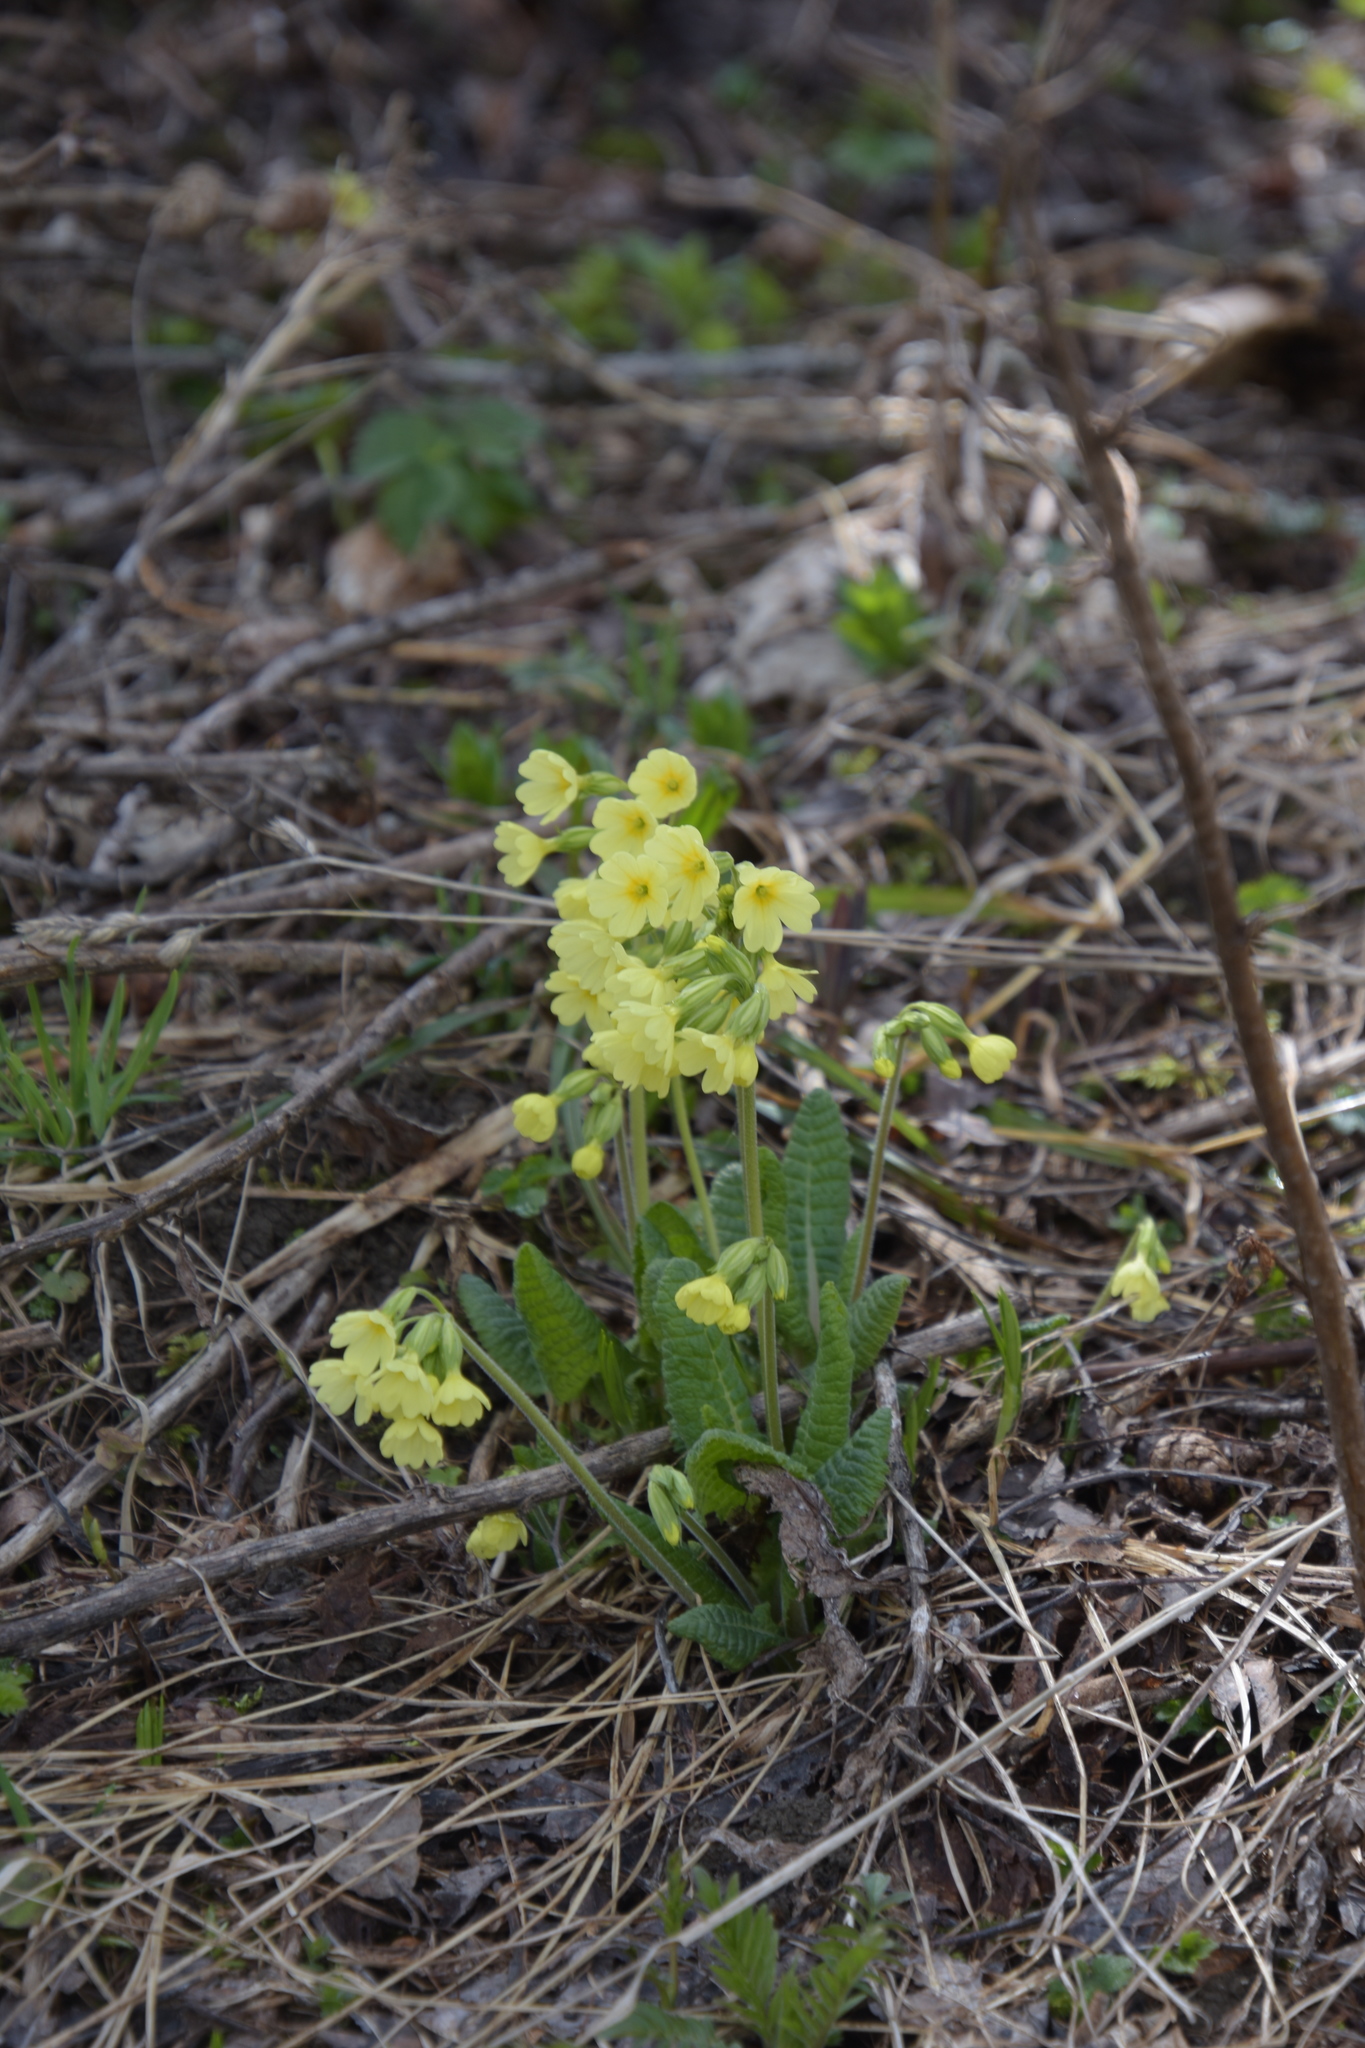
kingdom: Plantae
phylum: Tracheophyta
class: Magnoliopsida
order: Ericales
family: Primulaceae
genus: Primula
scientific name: Primula elatior
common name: Oxlip
